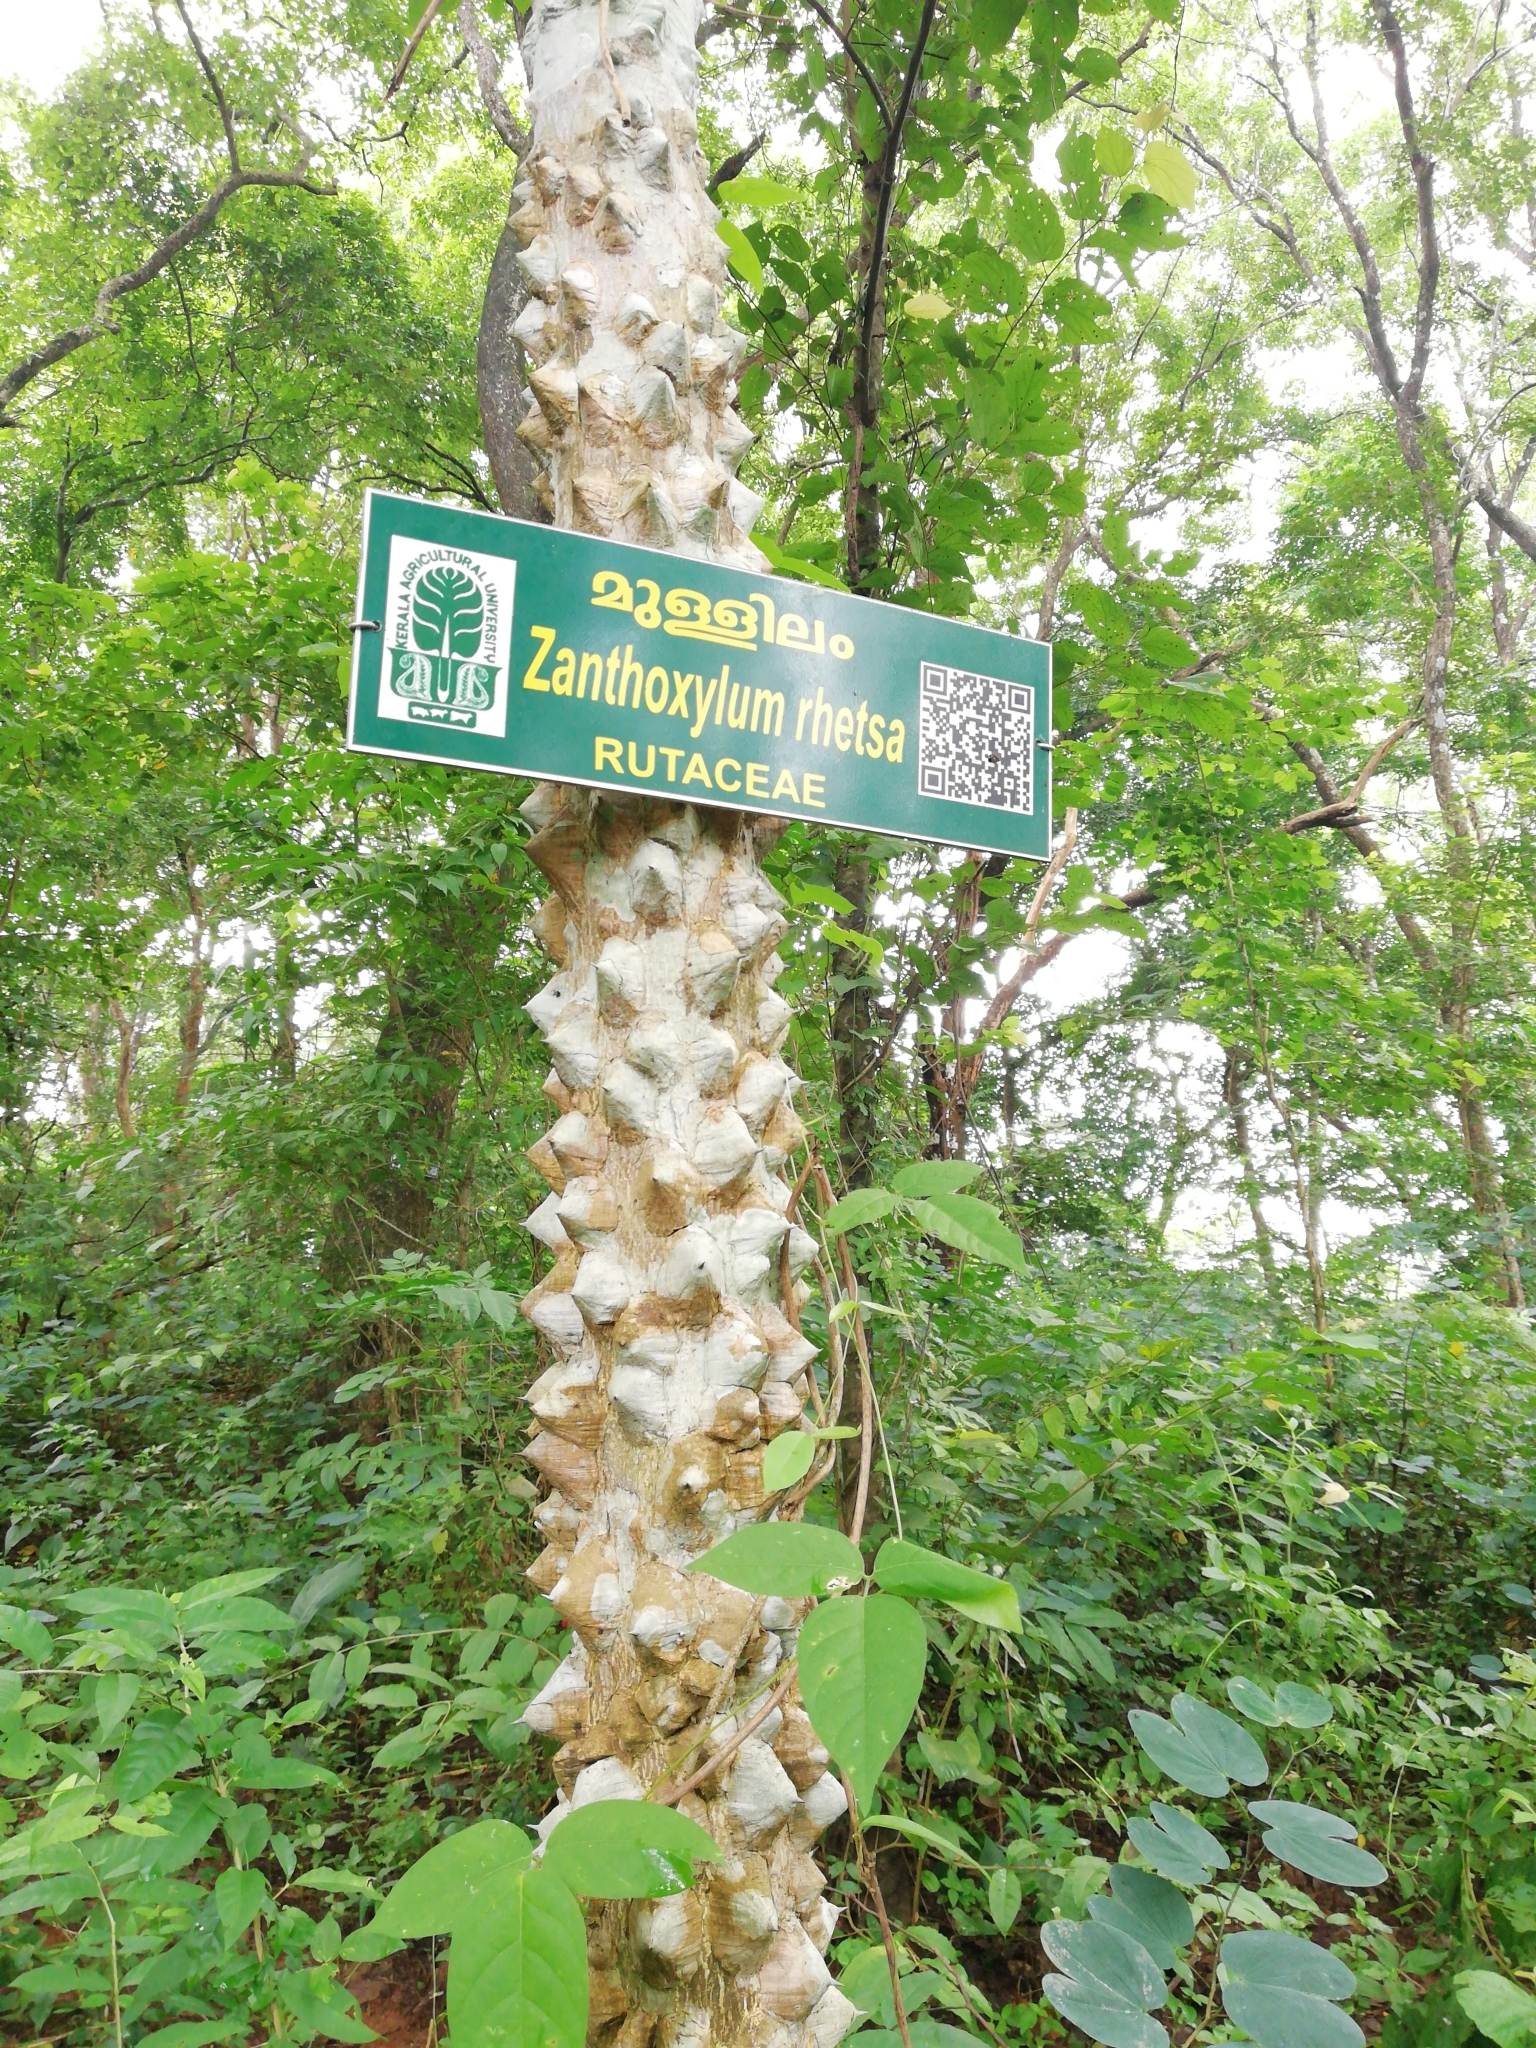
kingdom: Plantae
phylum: Tracheophyta
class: Magnoliopsida
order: Sapindales
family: Rutaceae
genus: Zanthoxylum
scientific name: Zanthoxylum rhetsa
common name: Indian ivy-rue
